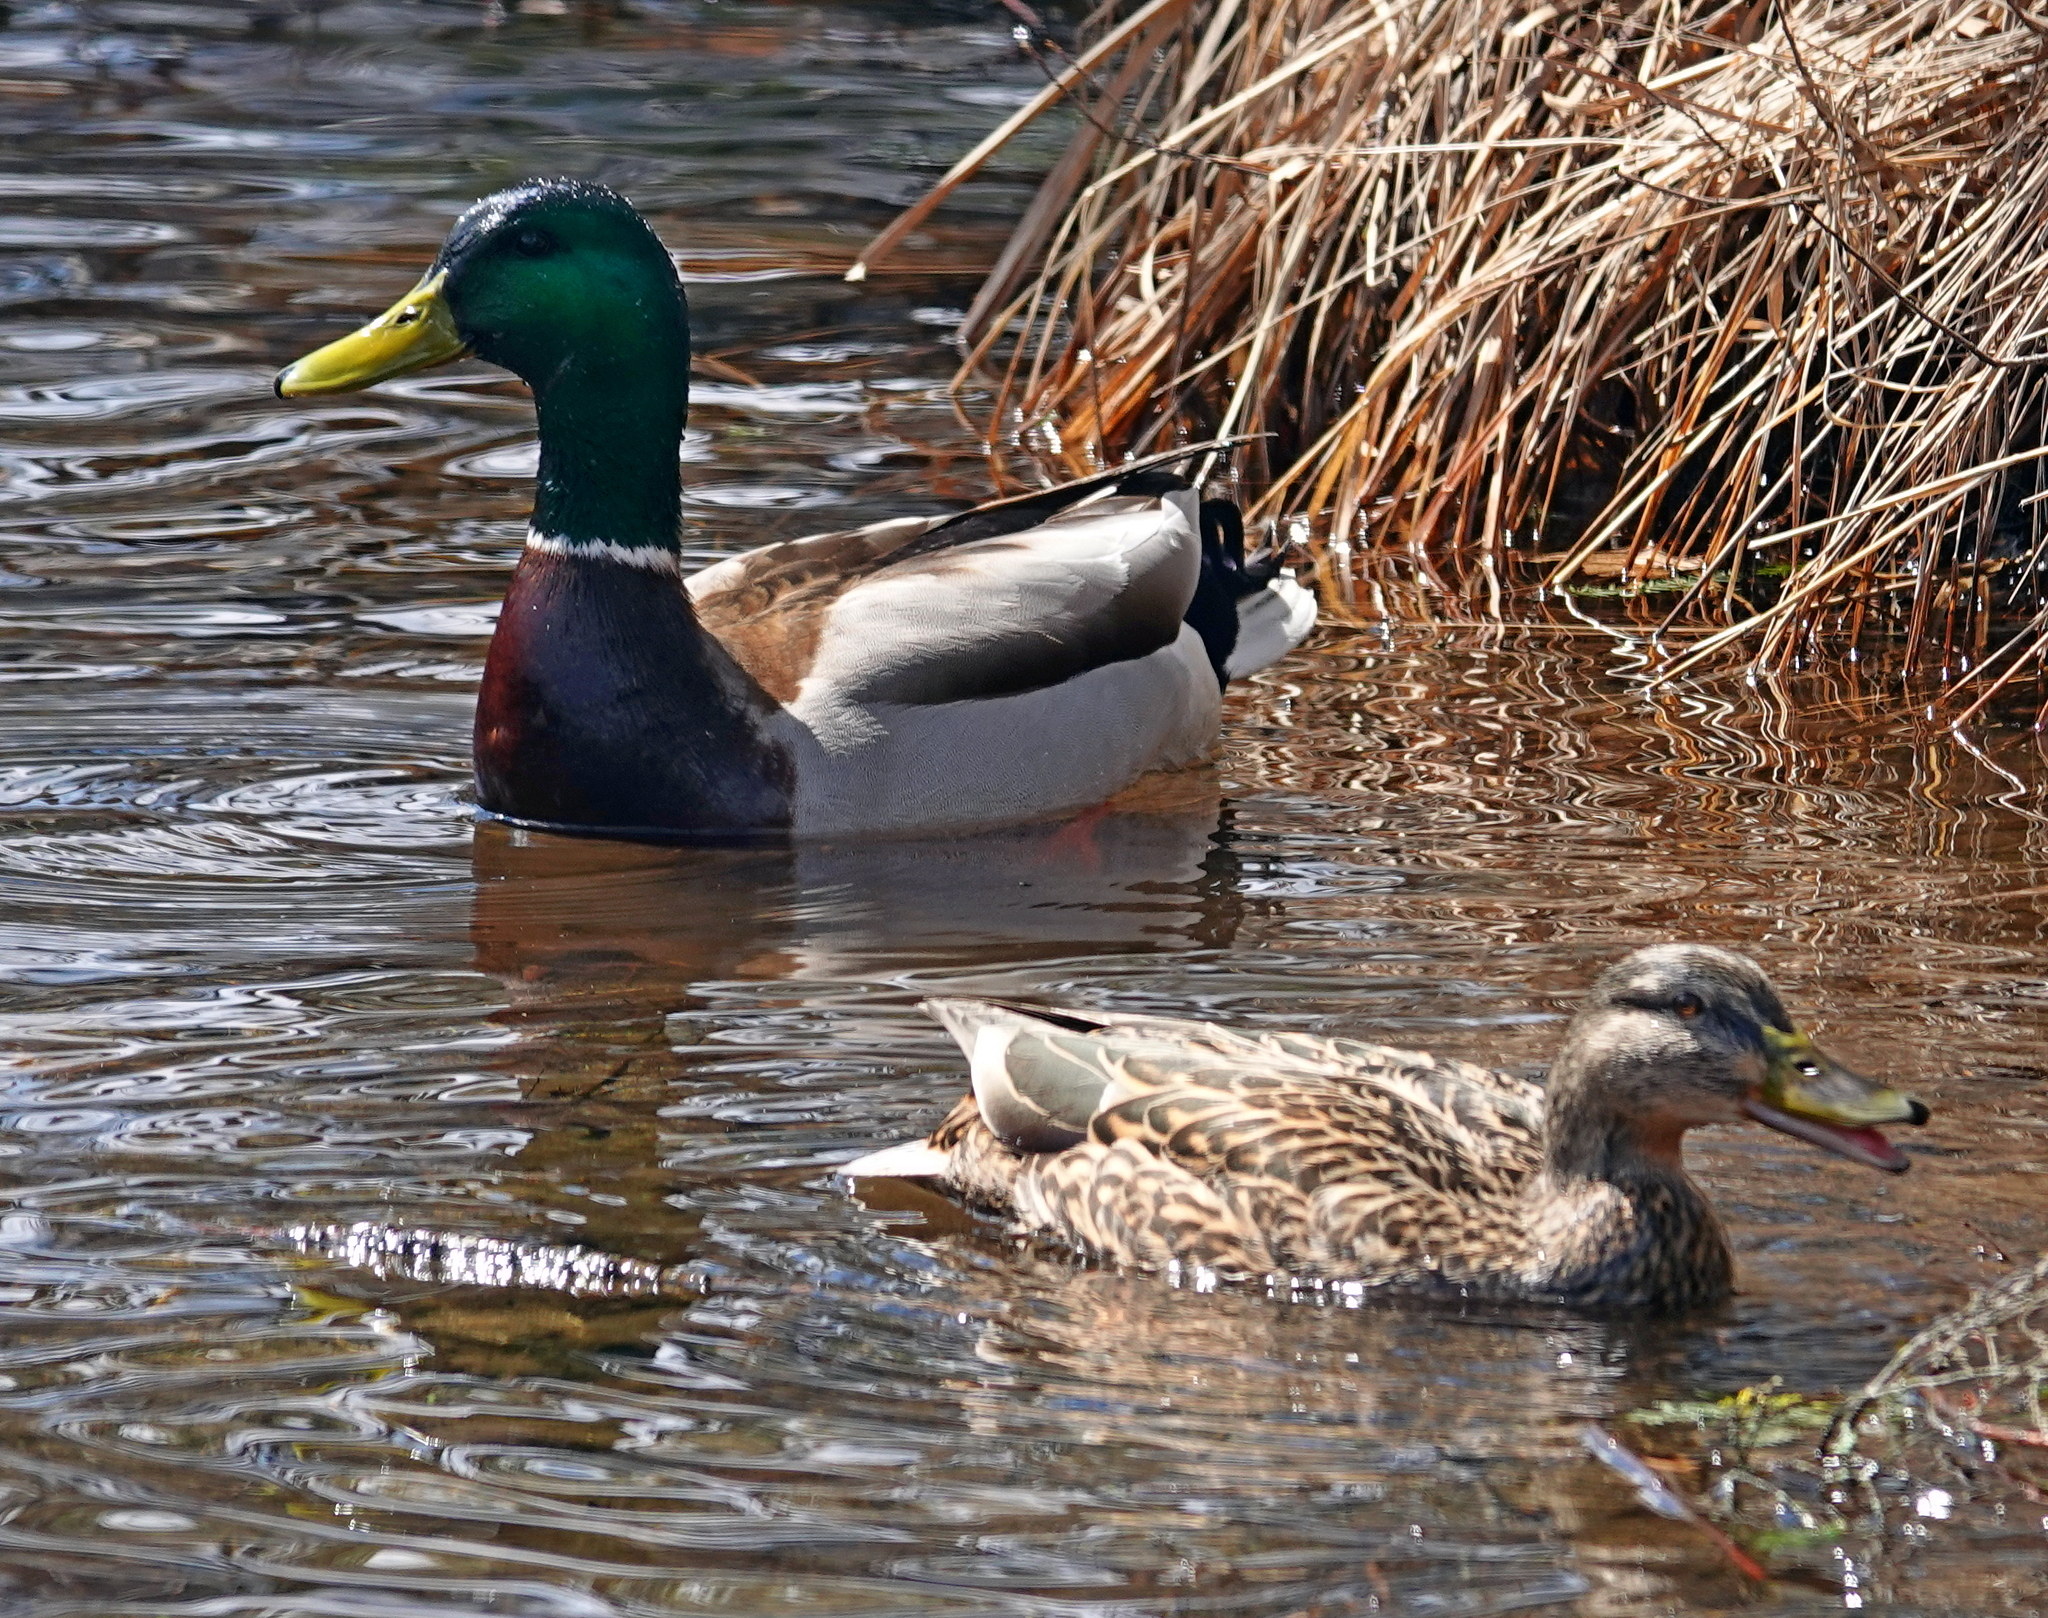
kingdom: Animalia
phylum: Chordata
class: Aves
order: Anseriformes
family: Anatidae
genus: Anas
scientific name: Anas platyrhynchos
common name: Mallard
